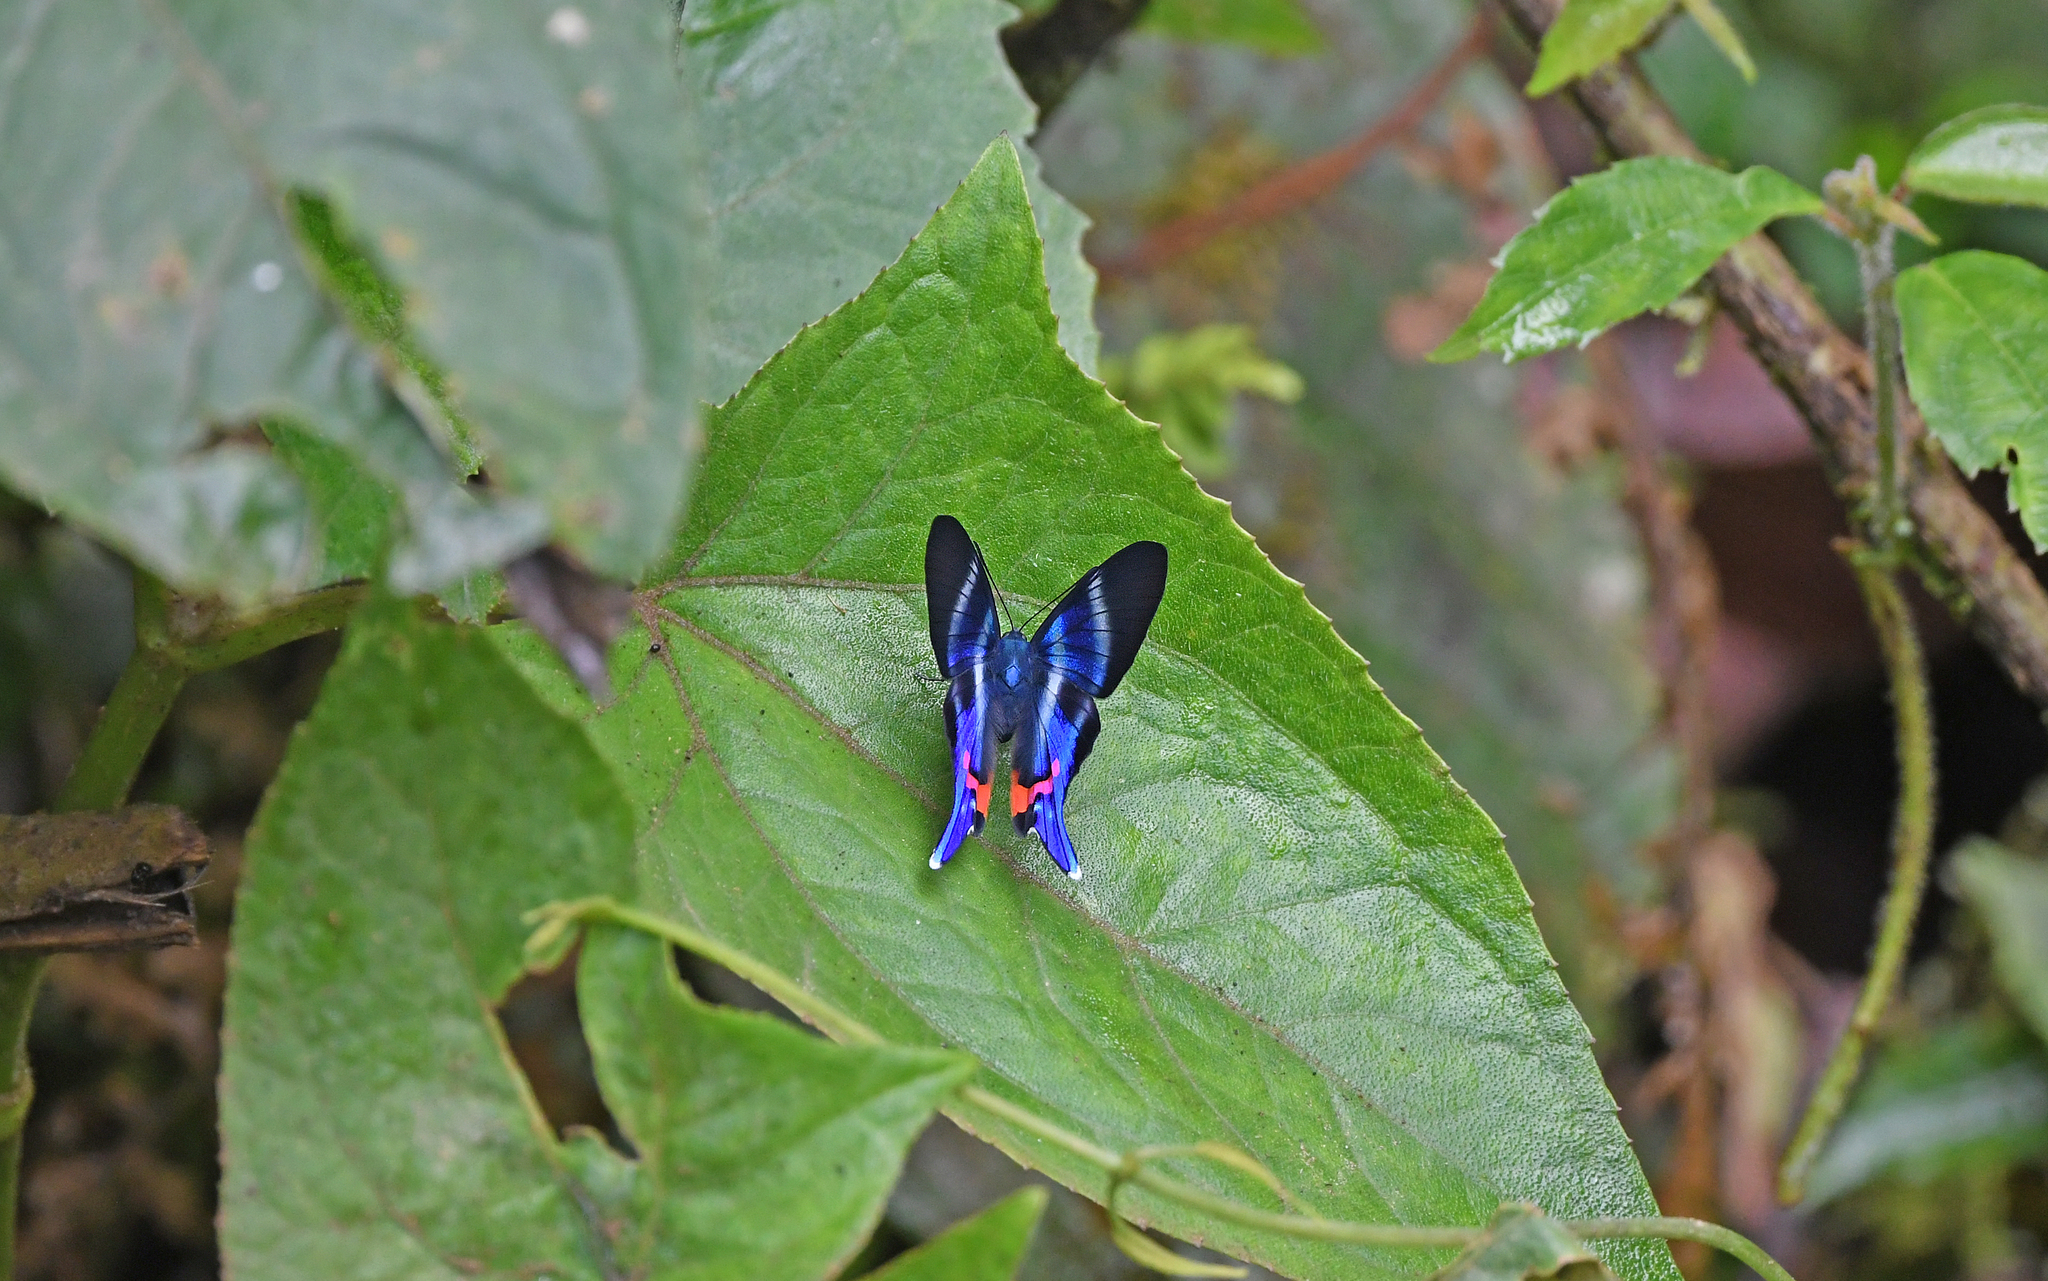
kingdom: Animalia
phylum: Arthropoda
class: Insecta
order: Lepidoptera
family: Riodinidae
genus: Rhetus
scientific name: Rhetus periander
